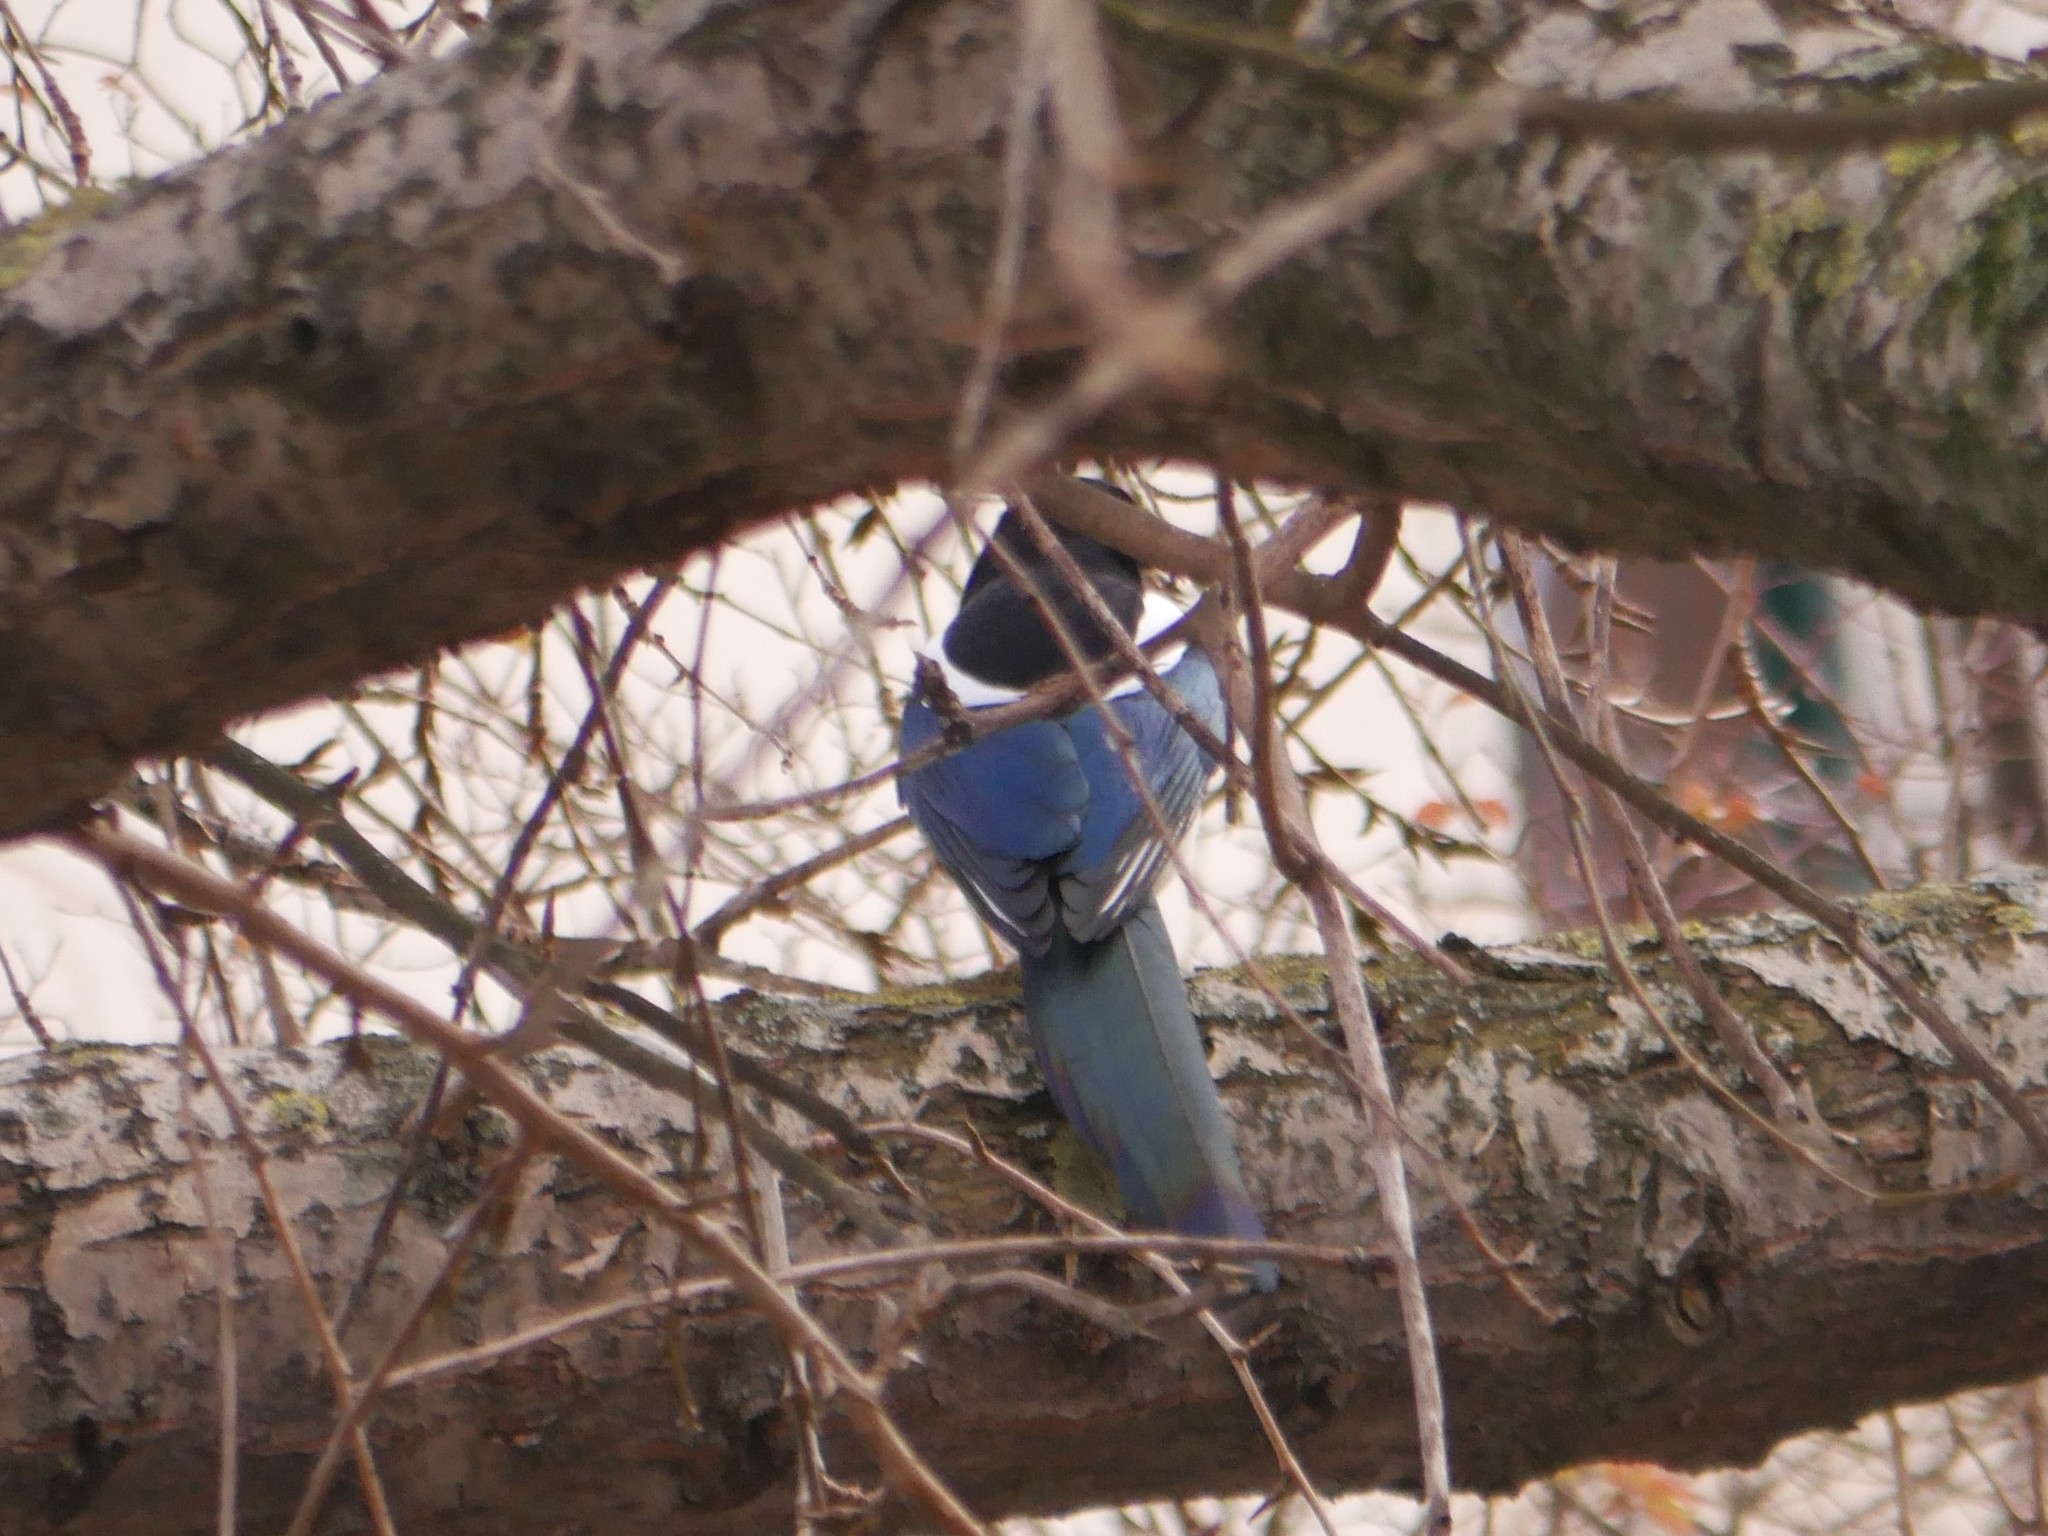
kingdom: Animalia
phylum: Chordata
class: Aves
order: Passeriformes
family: Corvidae
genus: Pica
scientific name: Pica pica
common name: Eurasian magpie
